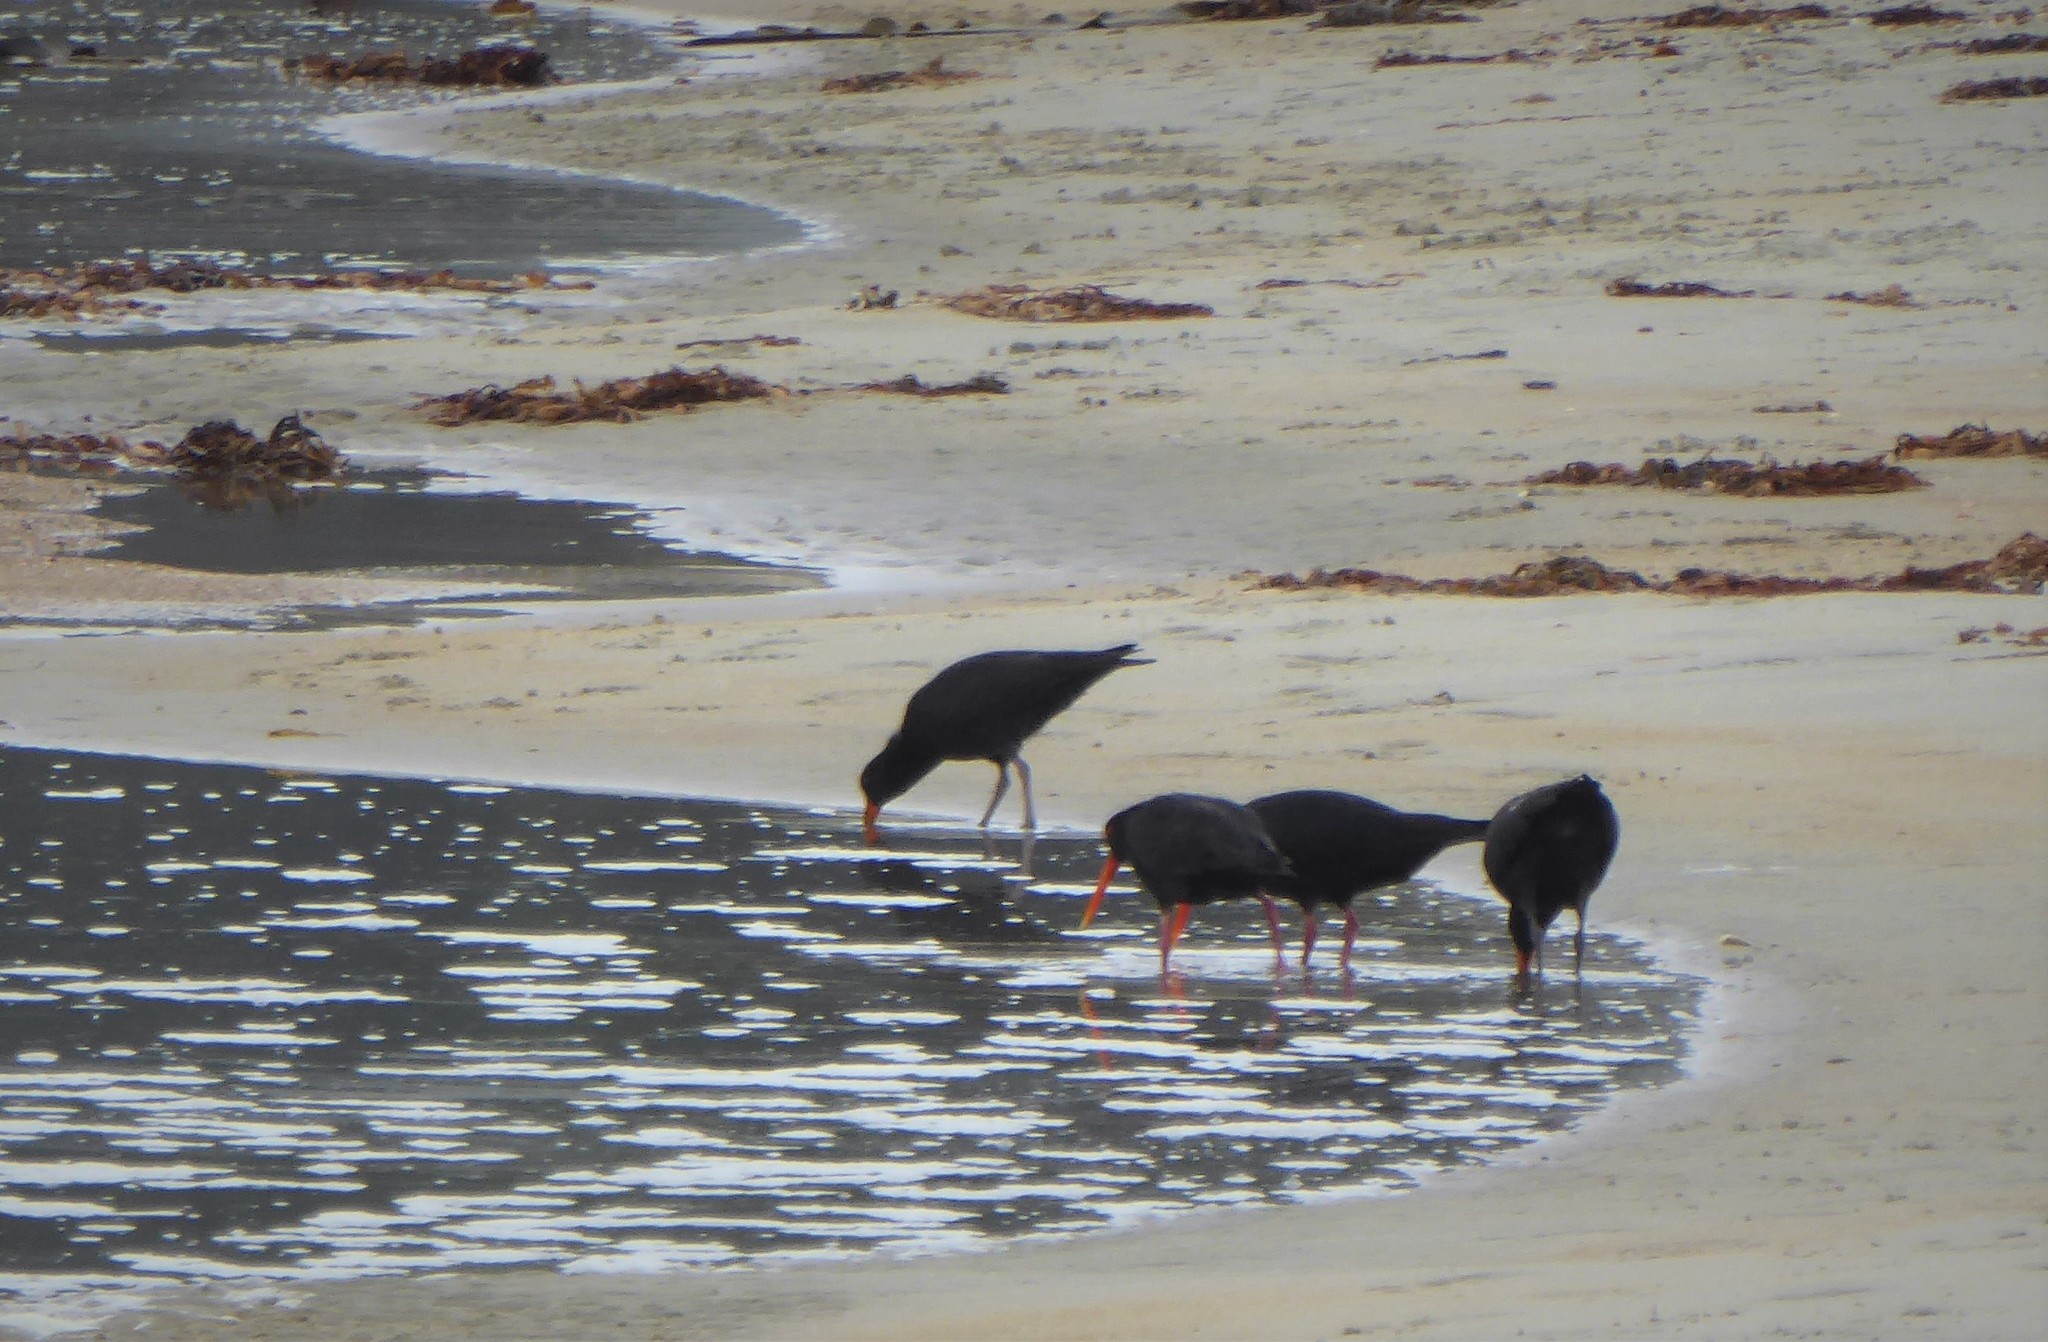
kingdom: Animalia
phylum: Chordata
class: Aves
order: Charadriiformes
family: Haematopodidae
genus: Haematopus
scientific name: Haematopus unicolor
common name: Variable oystercatcher
